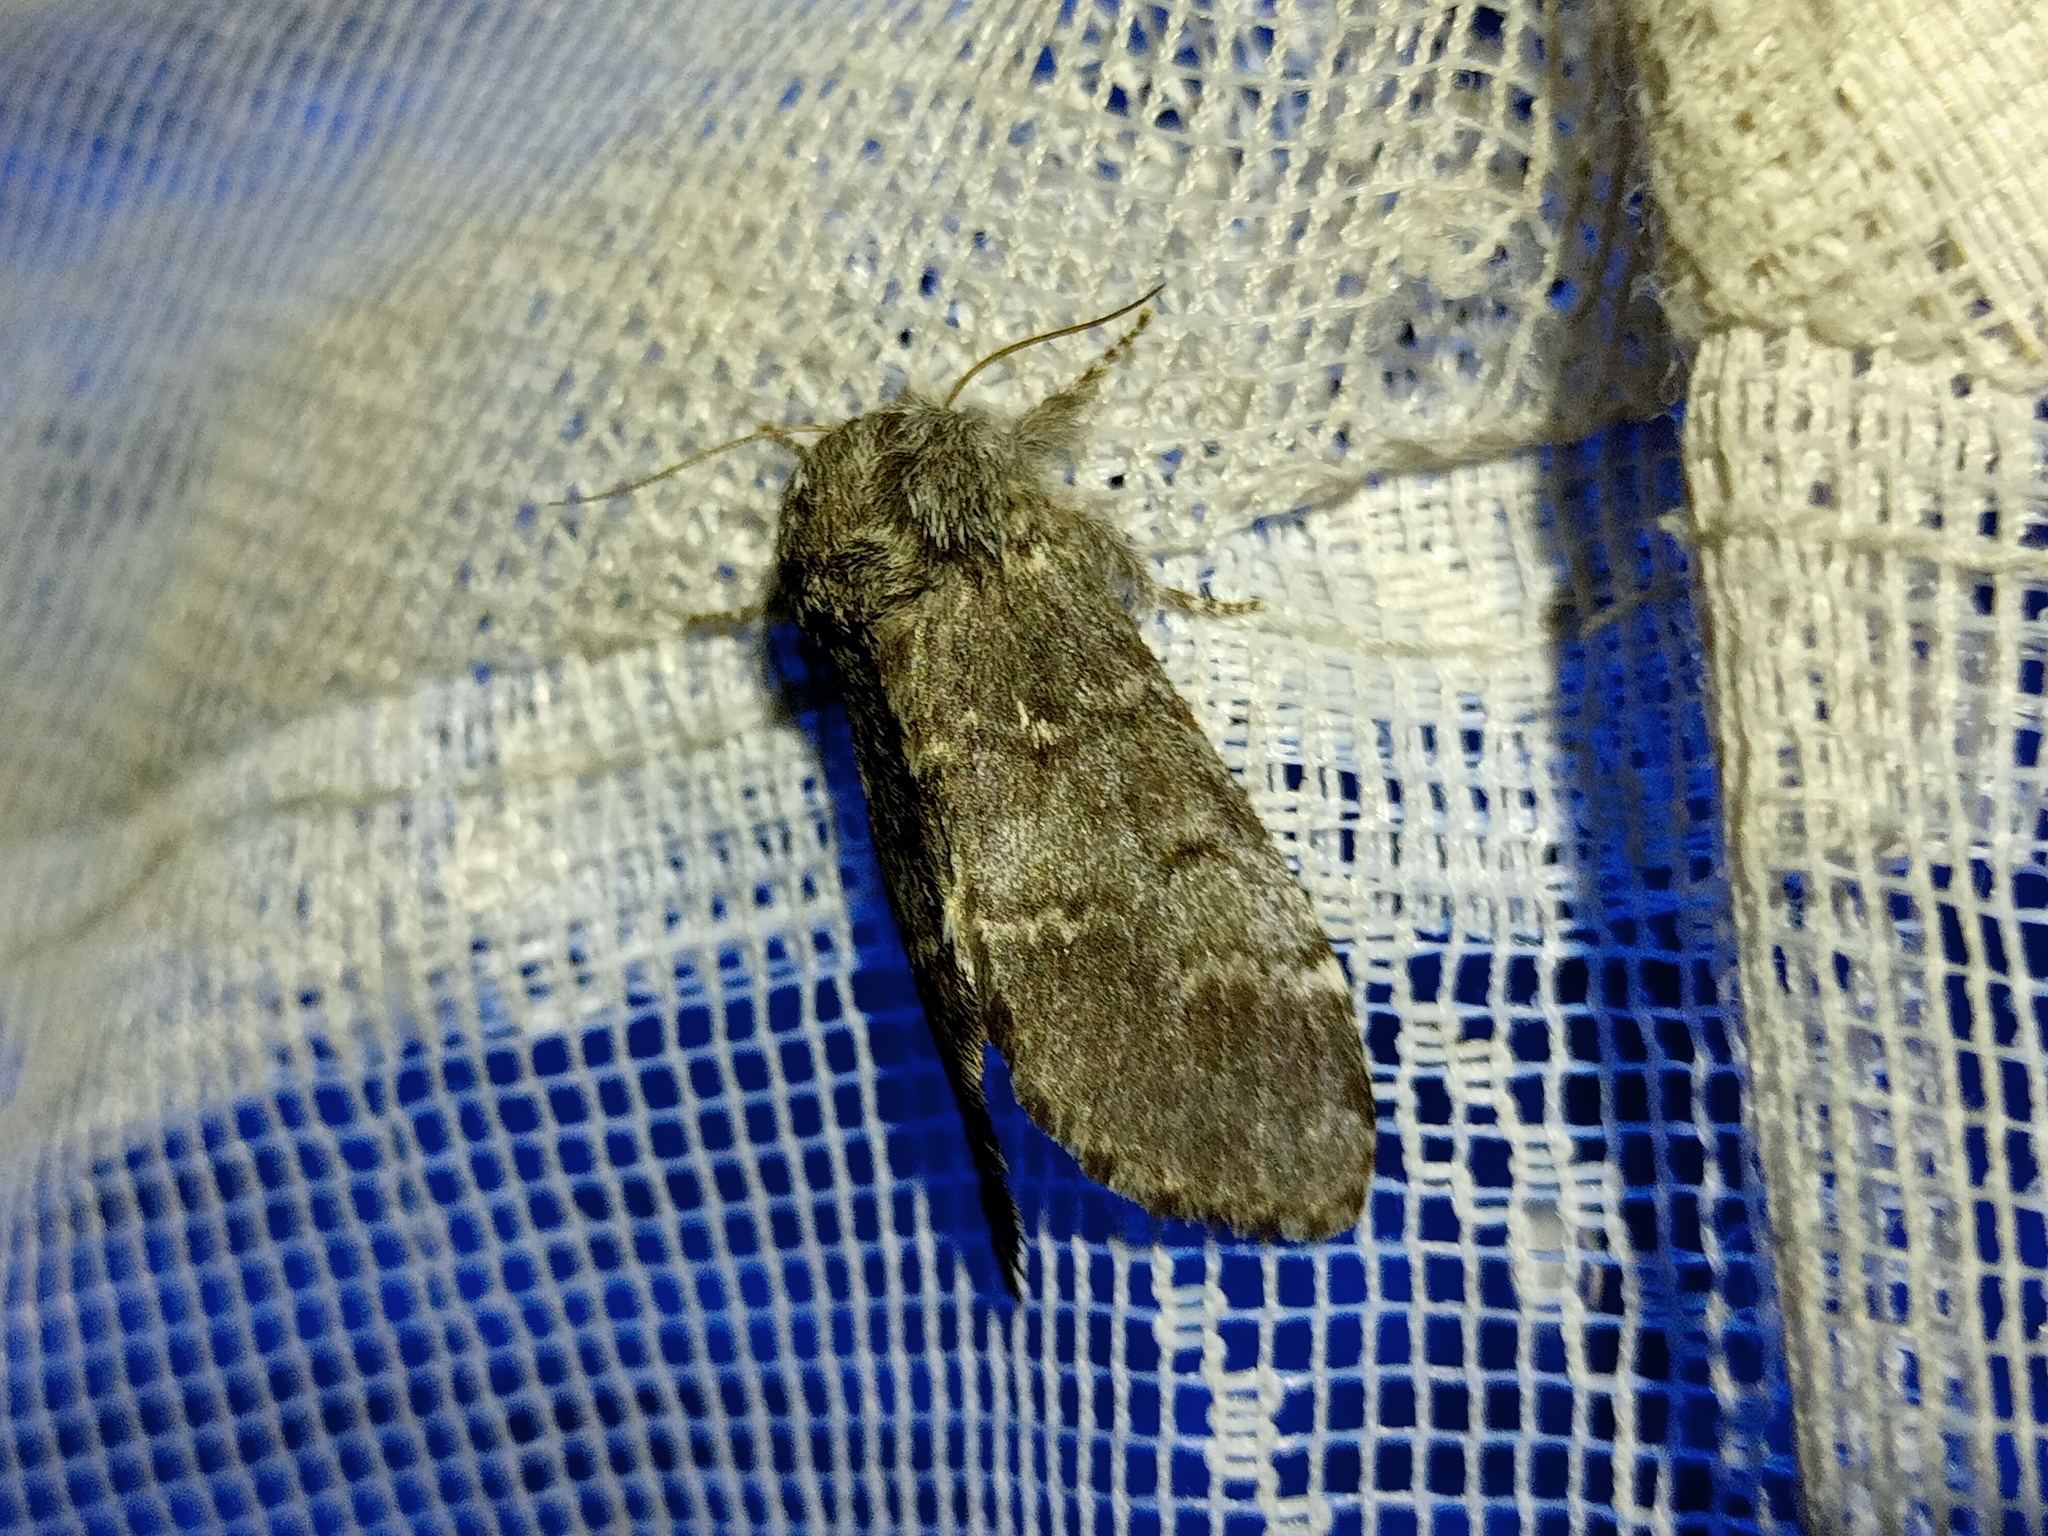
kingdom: Animalia
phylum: Arthropoda
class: Insecta
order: Lepidoptera
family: Notodontidae
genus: Drymonia
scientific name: Drymonia ruficornis
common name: Lunar marbled brown
